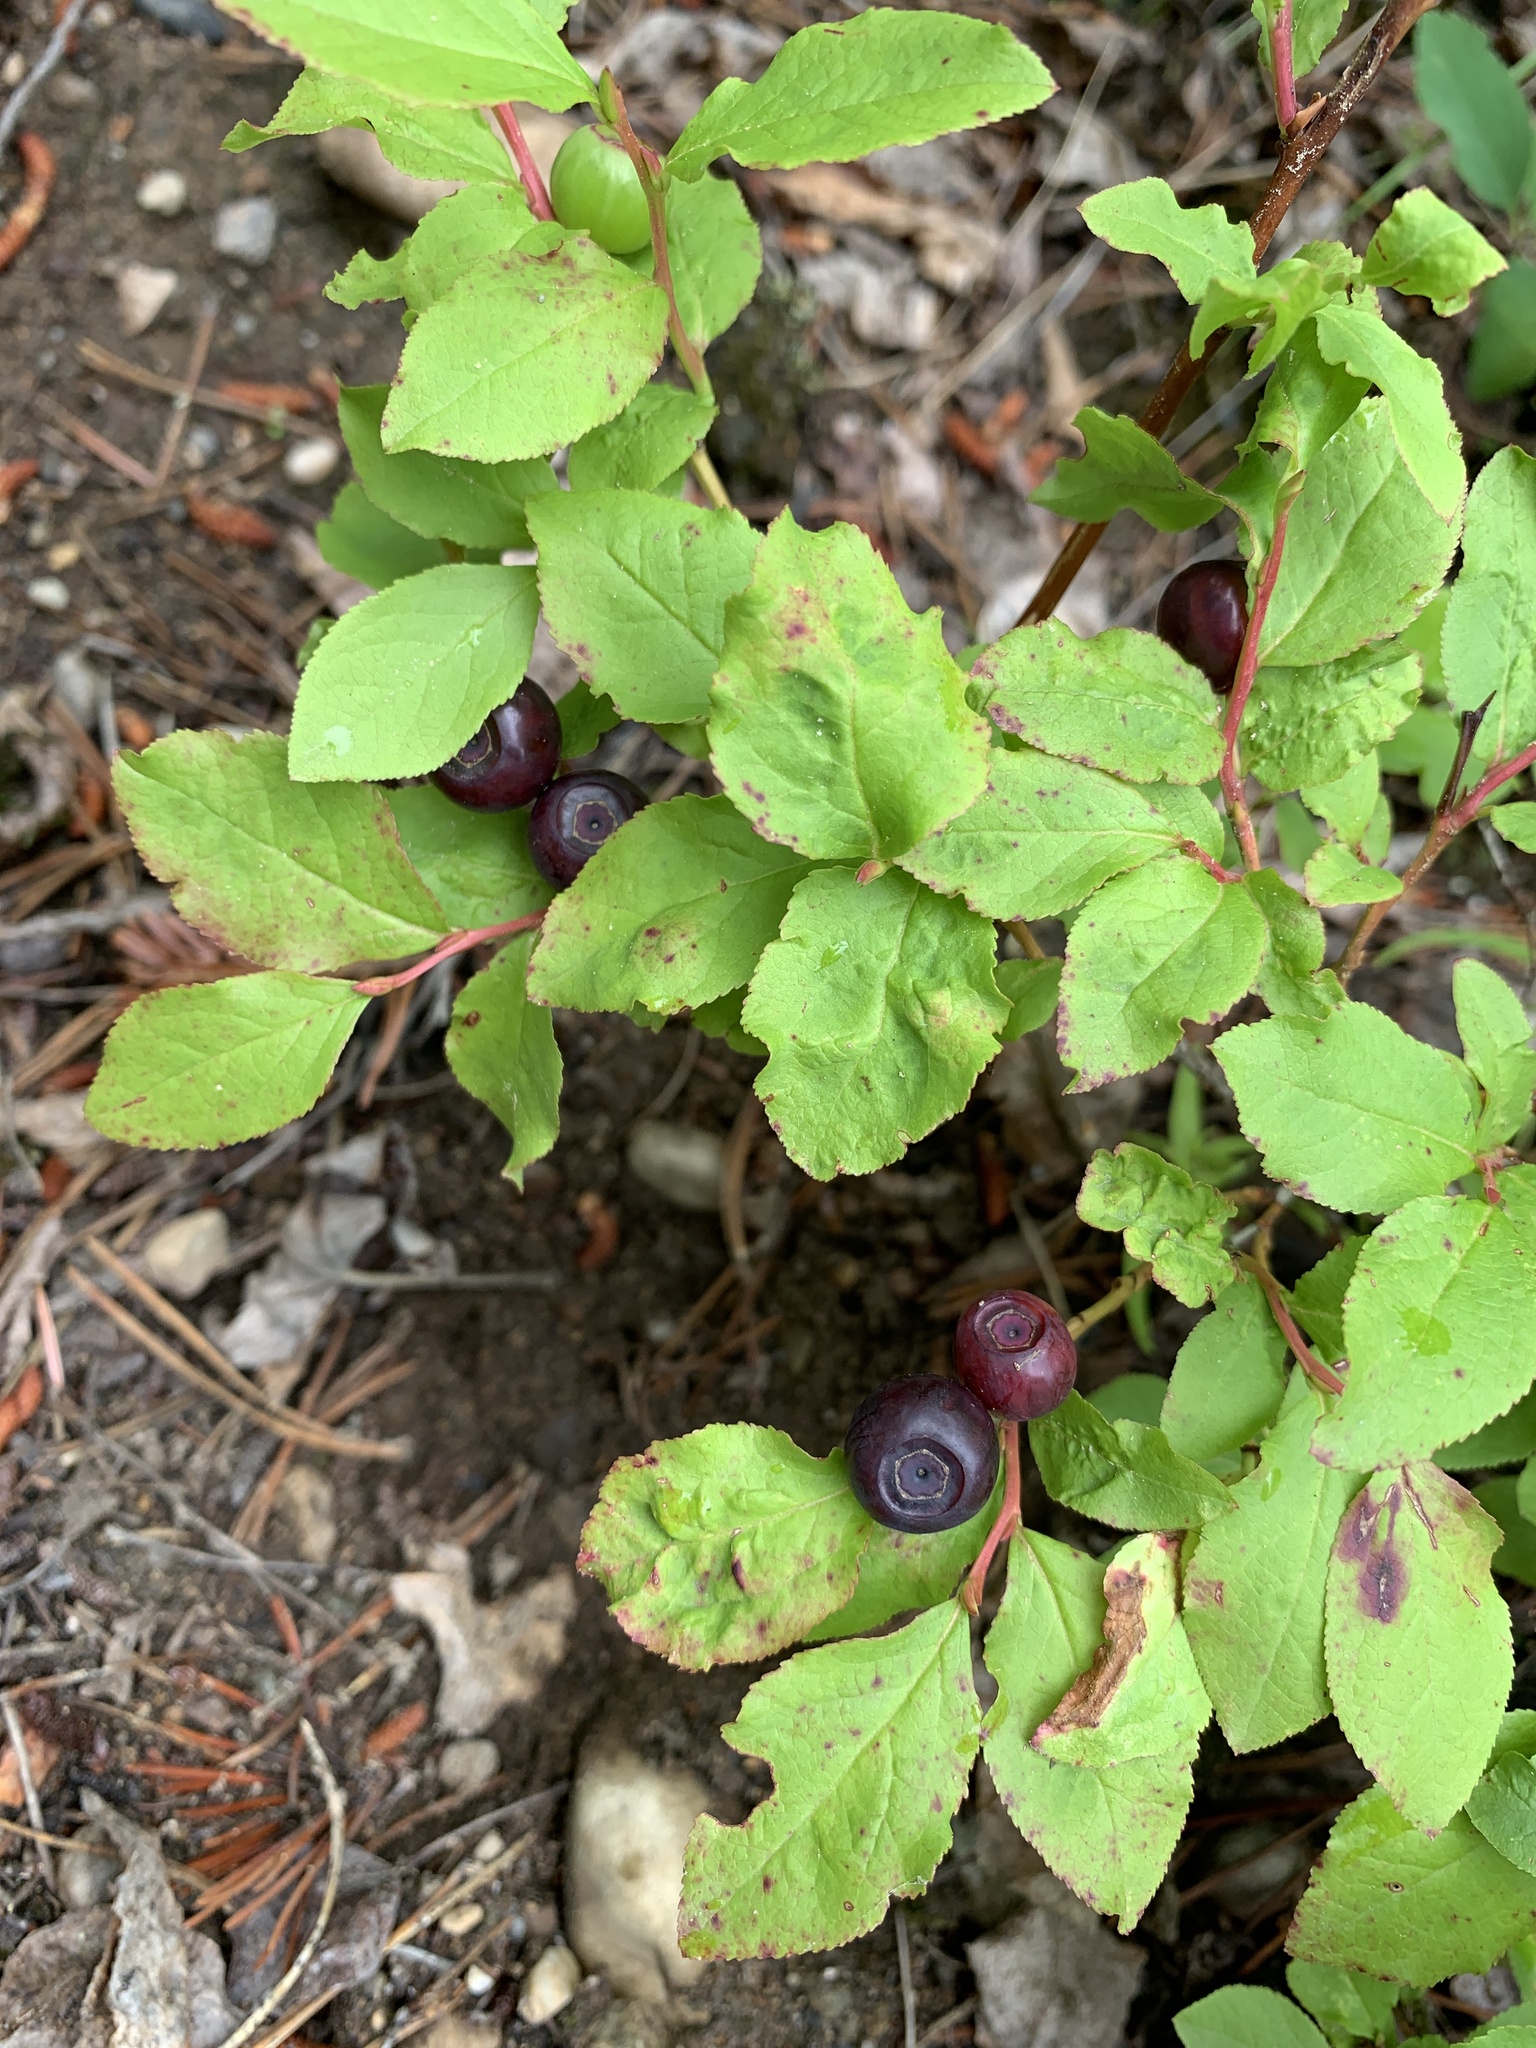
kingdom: Plantae
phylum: Tracheophyta
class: Magnoliopsida
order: Ericales
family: Ericaceae
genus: Vaccinium
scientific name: Vaccinium membranaceum
